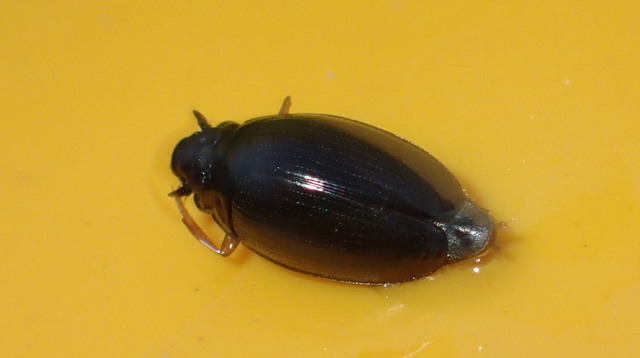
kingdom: Animalia
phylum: Arthropoda
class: Insecta
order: Coleoptera
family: Gyrinidae
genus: Gyrinus
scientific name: Gyrinus
